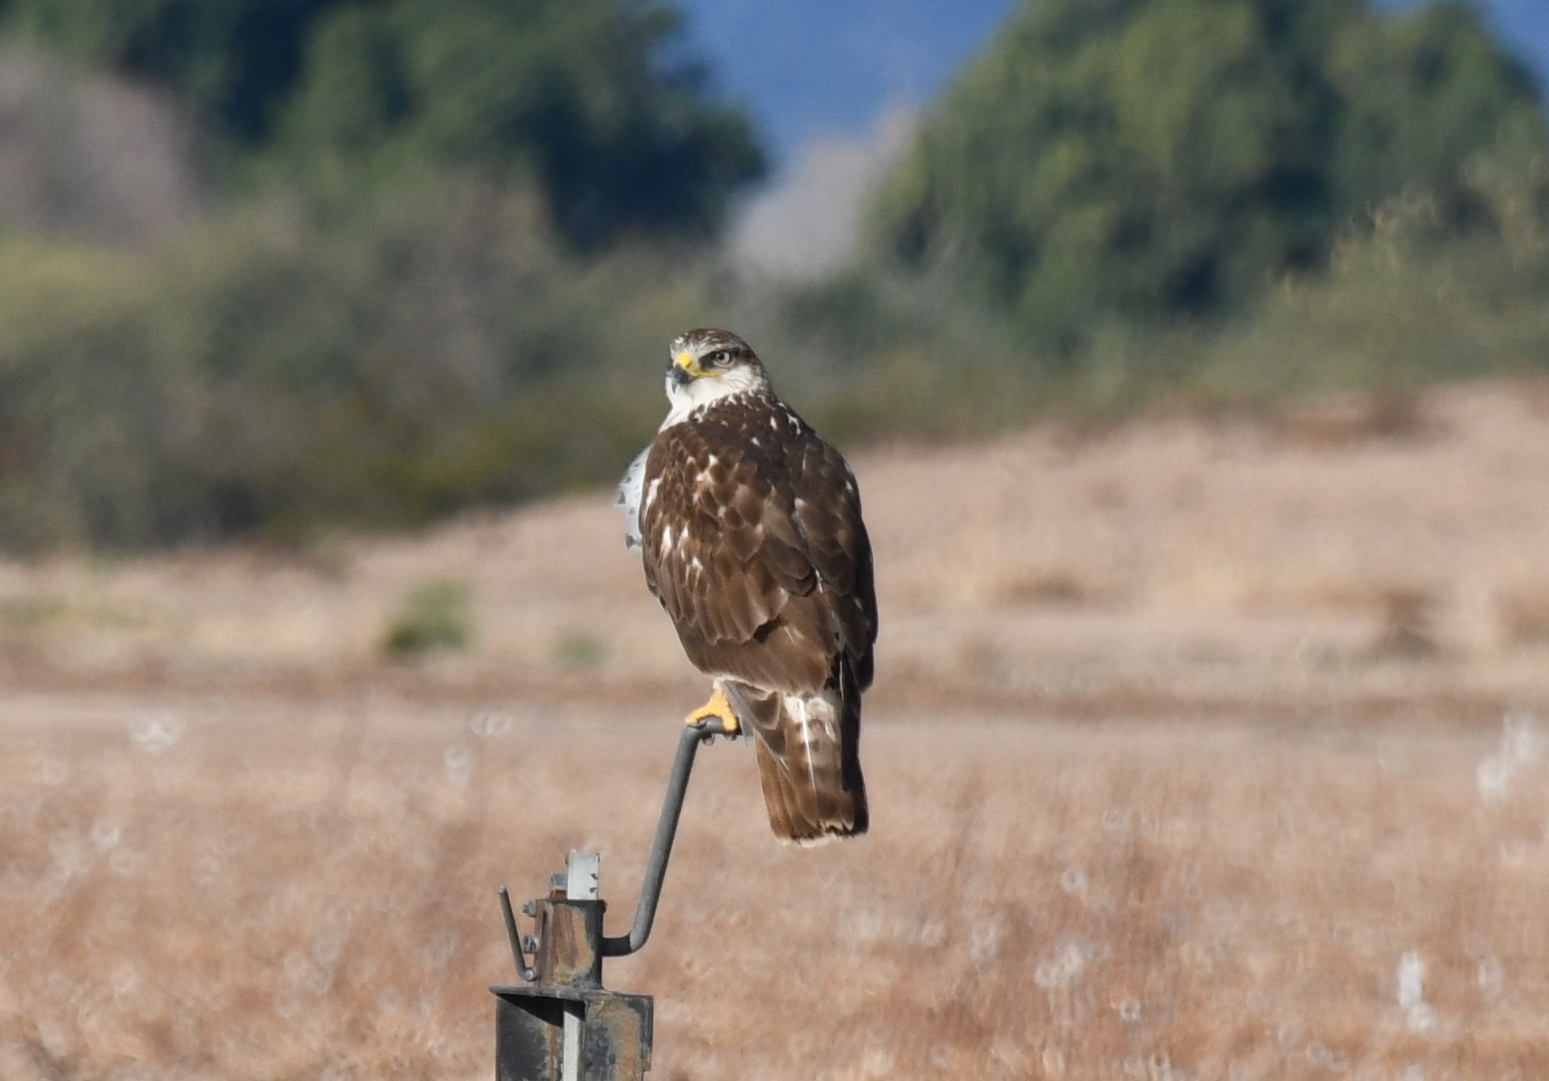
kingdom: Animalia
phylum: Chordata
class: Aves
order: Accipitriformes
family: Accipitridae
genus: Buteo
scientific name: Buteo regalis
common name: Ferruginous hawk
